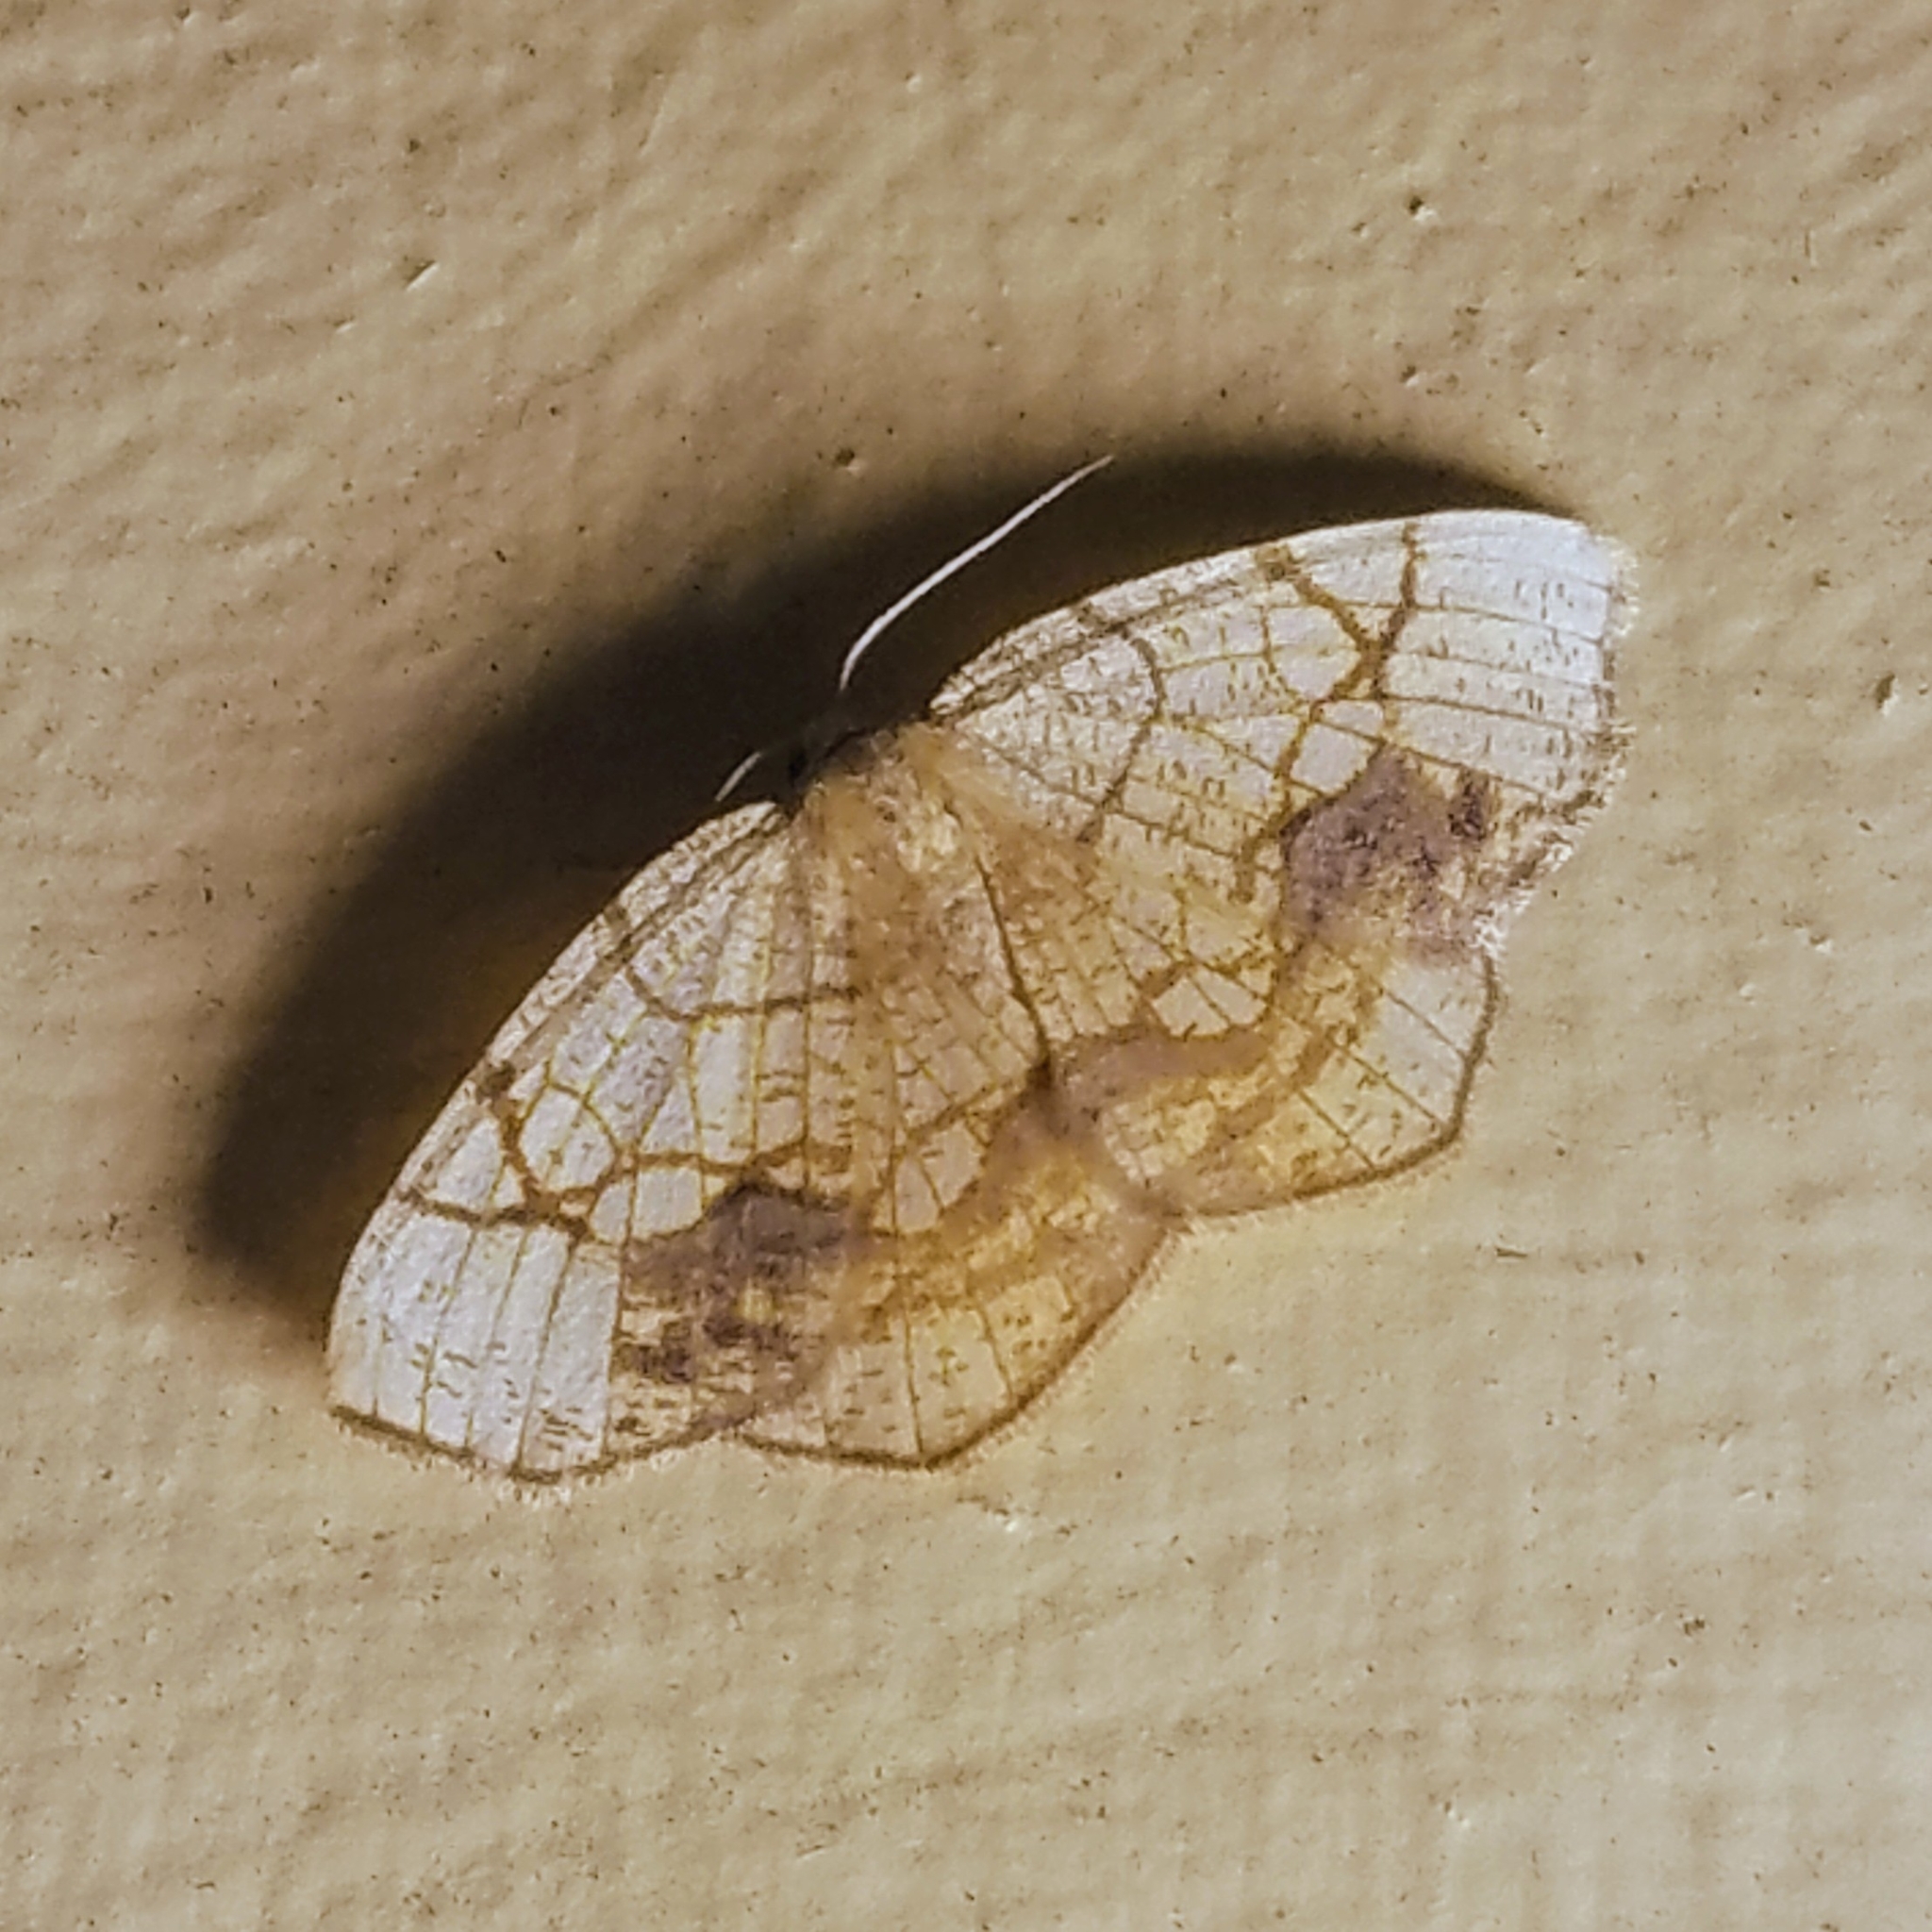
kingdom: Animalia
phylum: Arthropoda
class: Insecta
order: Lepidoptera
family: Geometridae
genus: Nematocampa
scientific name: Nematocampa resistaria
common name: Horned spanworm moth
